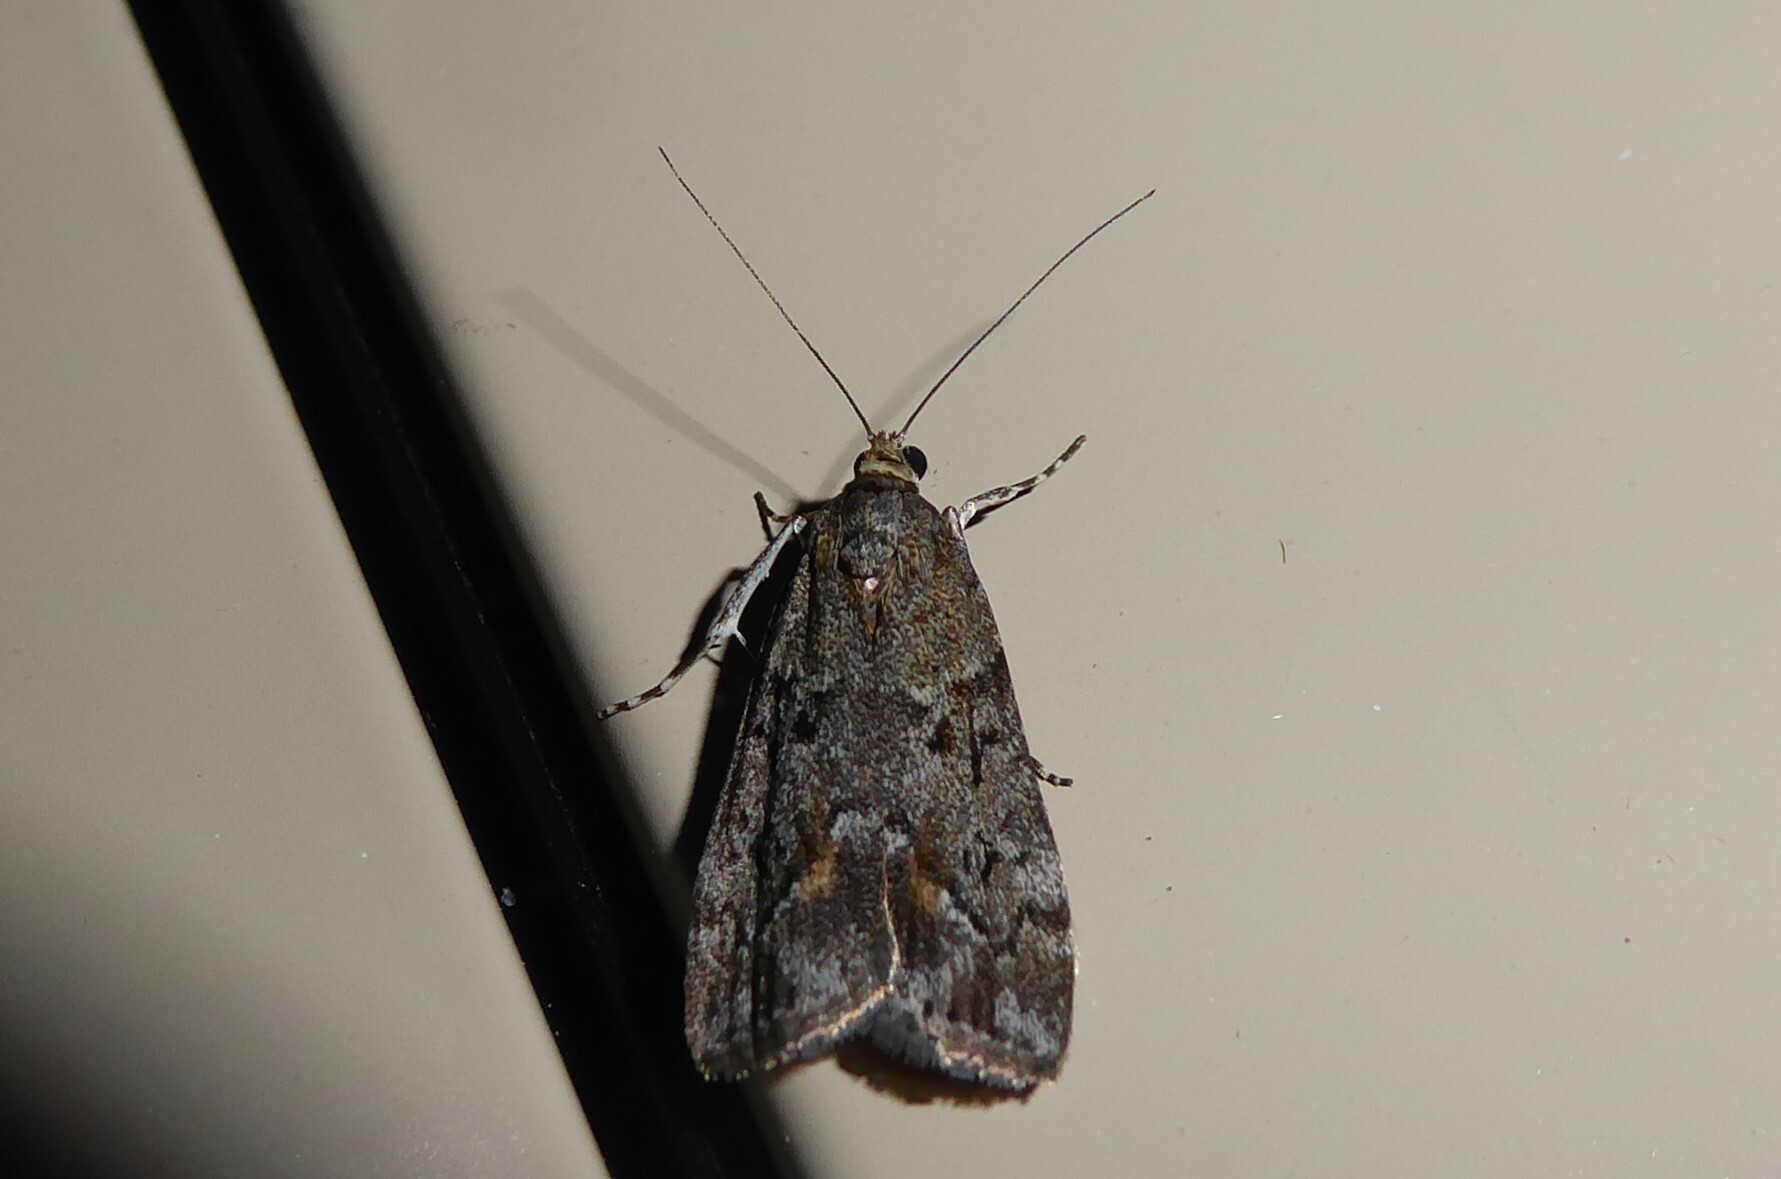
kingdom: Animalia
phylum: Arthropoda
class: Insecta
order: Lepidoptera
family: Crambidae
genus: Eudonia
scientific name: Eudonia submarginalis
